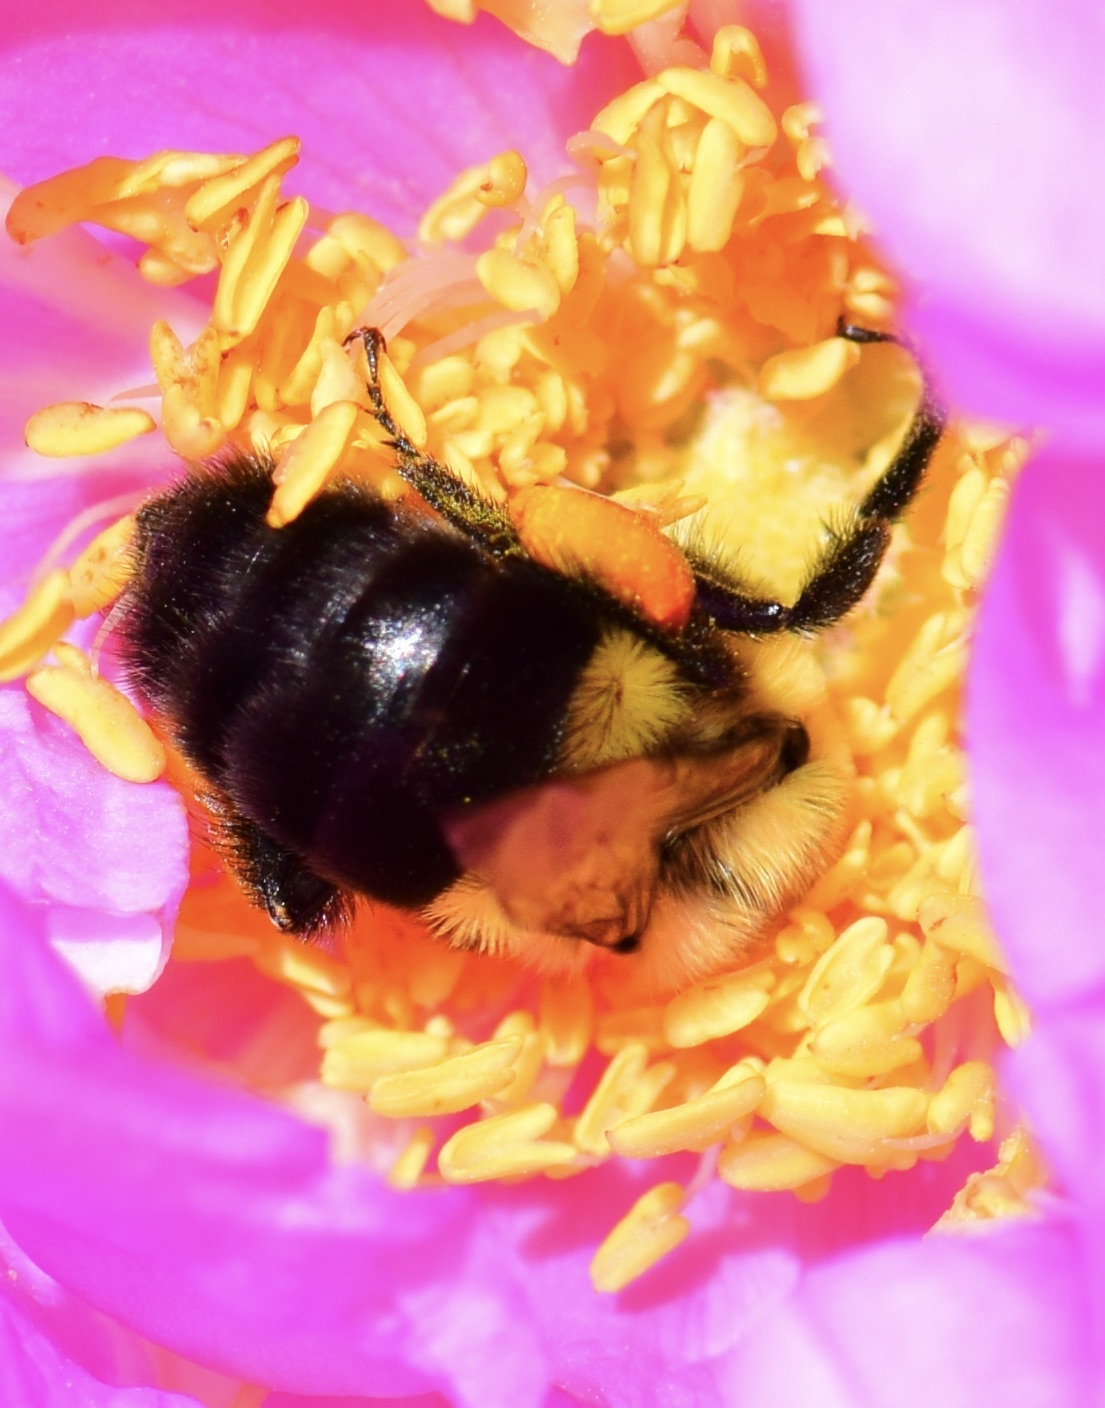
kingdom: Animalia
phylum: Arthropoda
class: Insecta
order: Hymenoptera
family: Apidae
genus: Bombus
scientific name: Bombus impatiens
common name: Common eastern bumble bee
